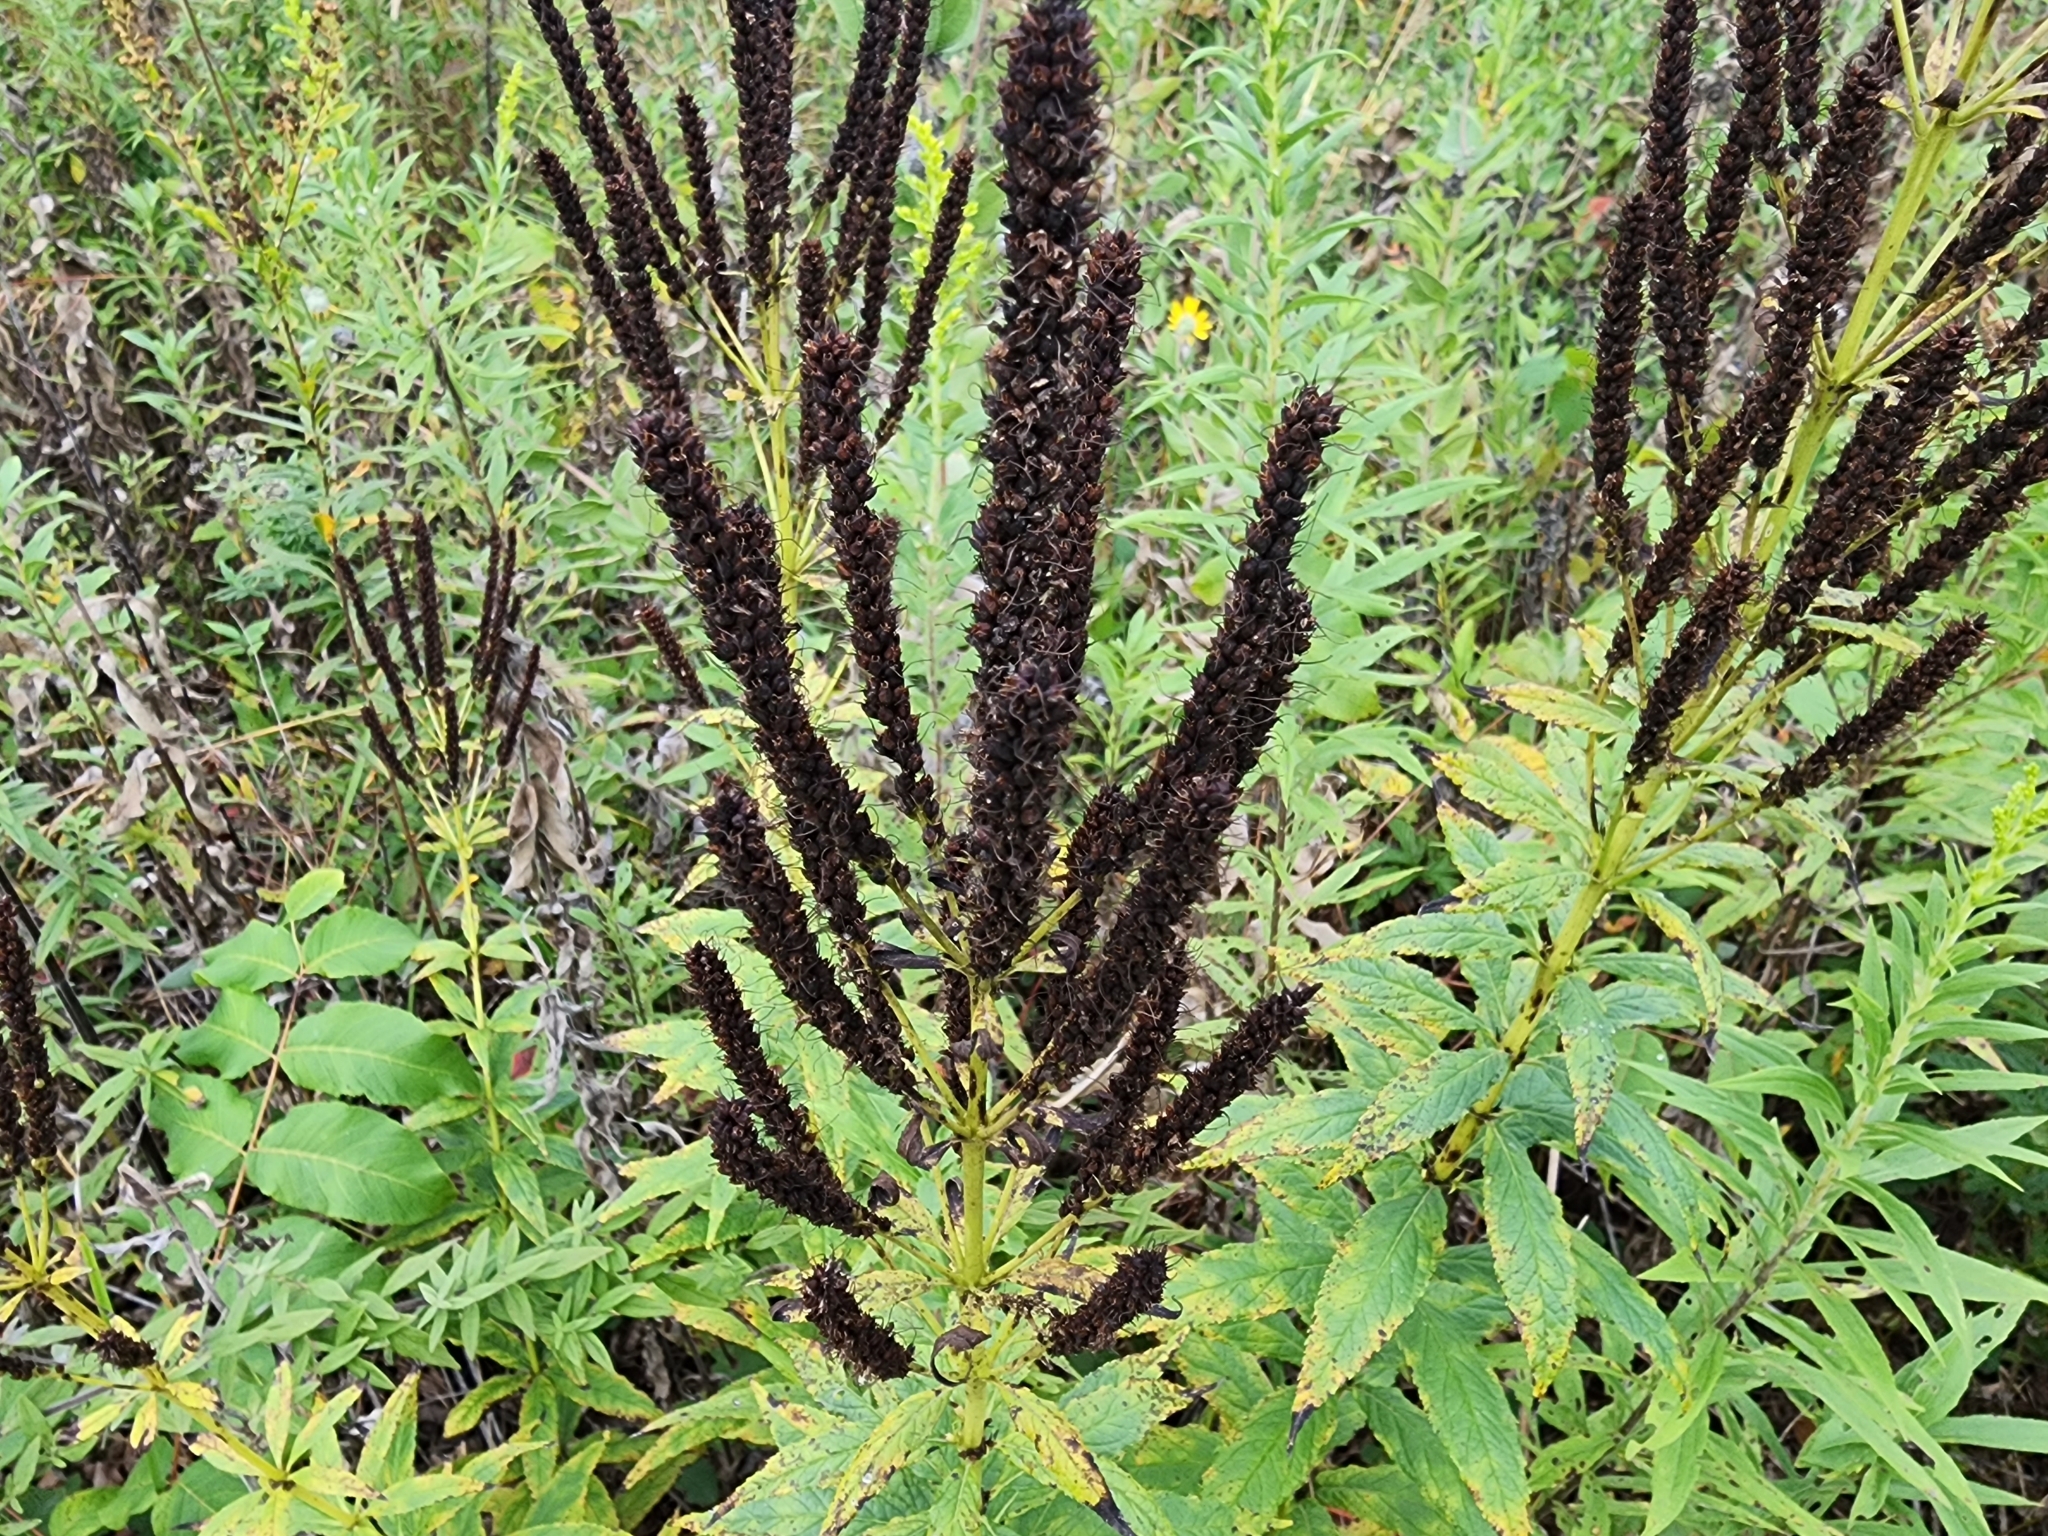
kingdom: Plantae
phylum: Tracheophyta
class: Magnoliopsida
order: Lamiales
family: Plantaginaceae
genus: Veronicastrum
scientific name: Veronicastrum virginicum
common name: Blackroot
